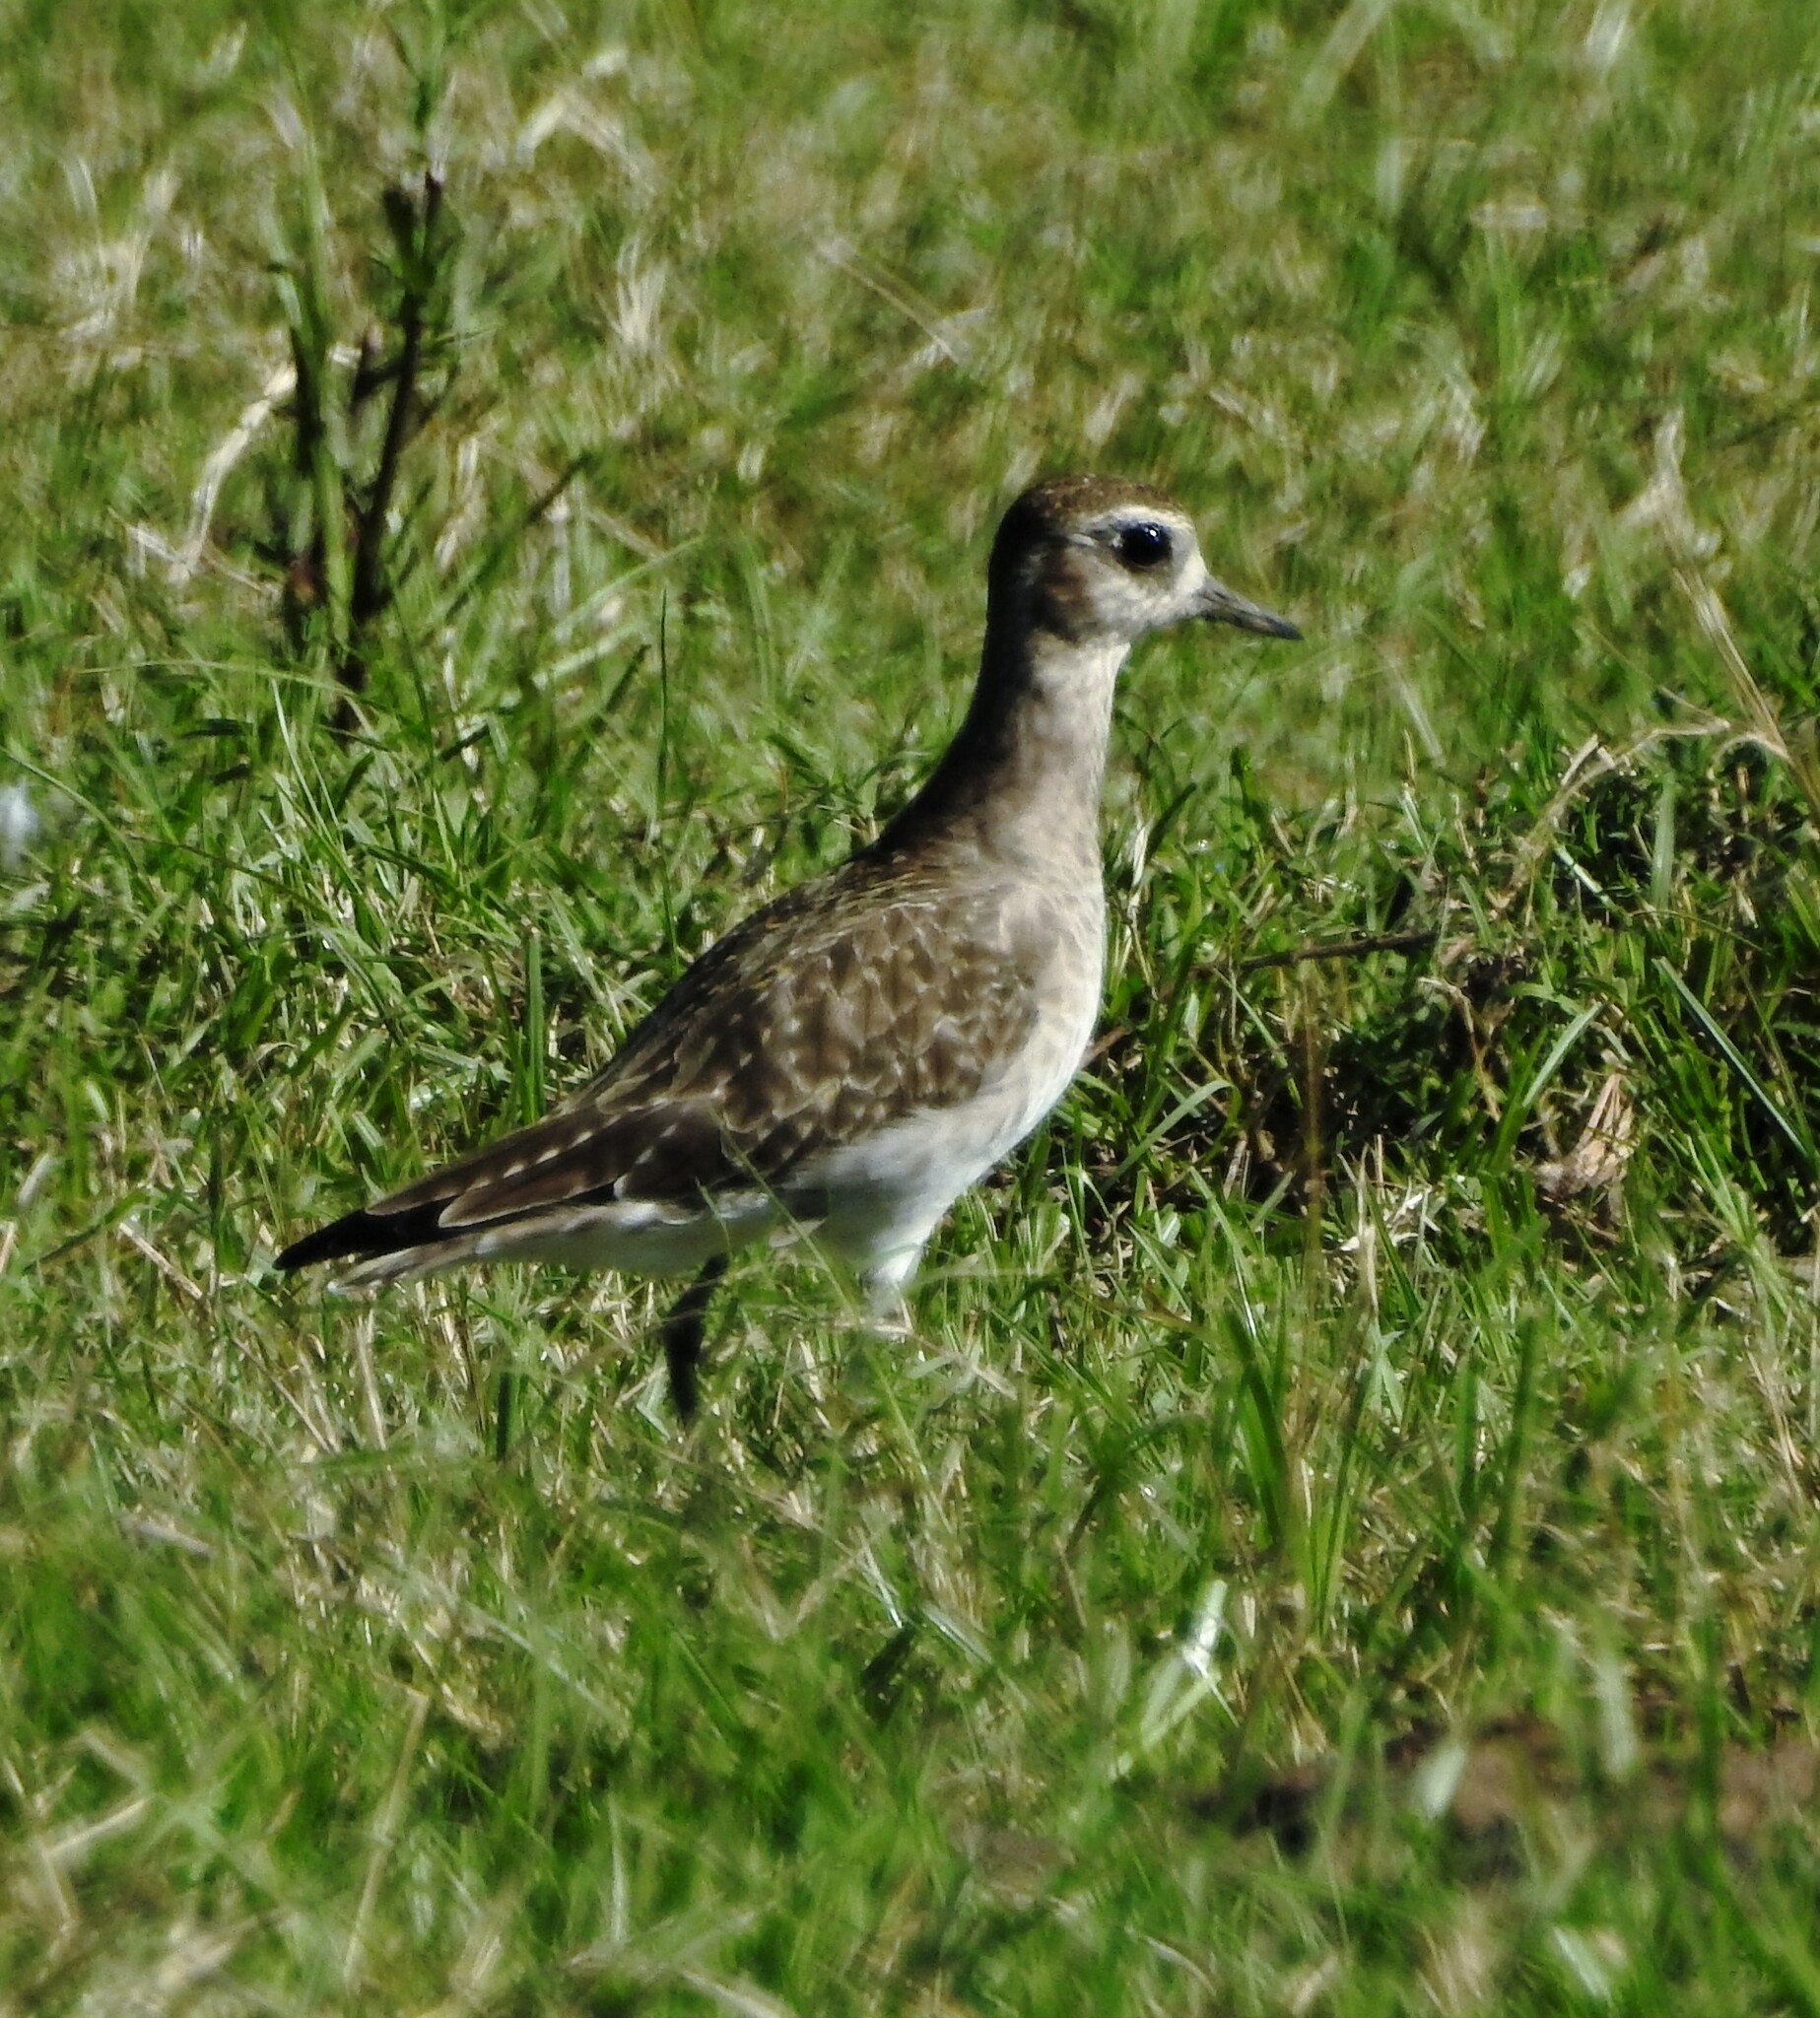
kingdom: Animalia
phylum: Chordata
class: Aves
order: Charadriiformes
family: Charadriidae
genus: Pluvialis
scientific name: Pluvialis dominica
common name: American golden plover
